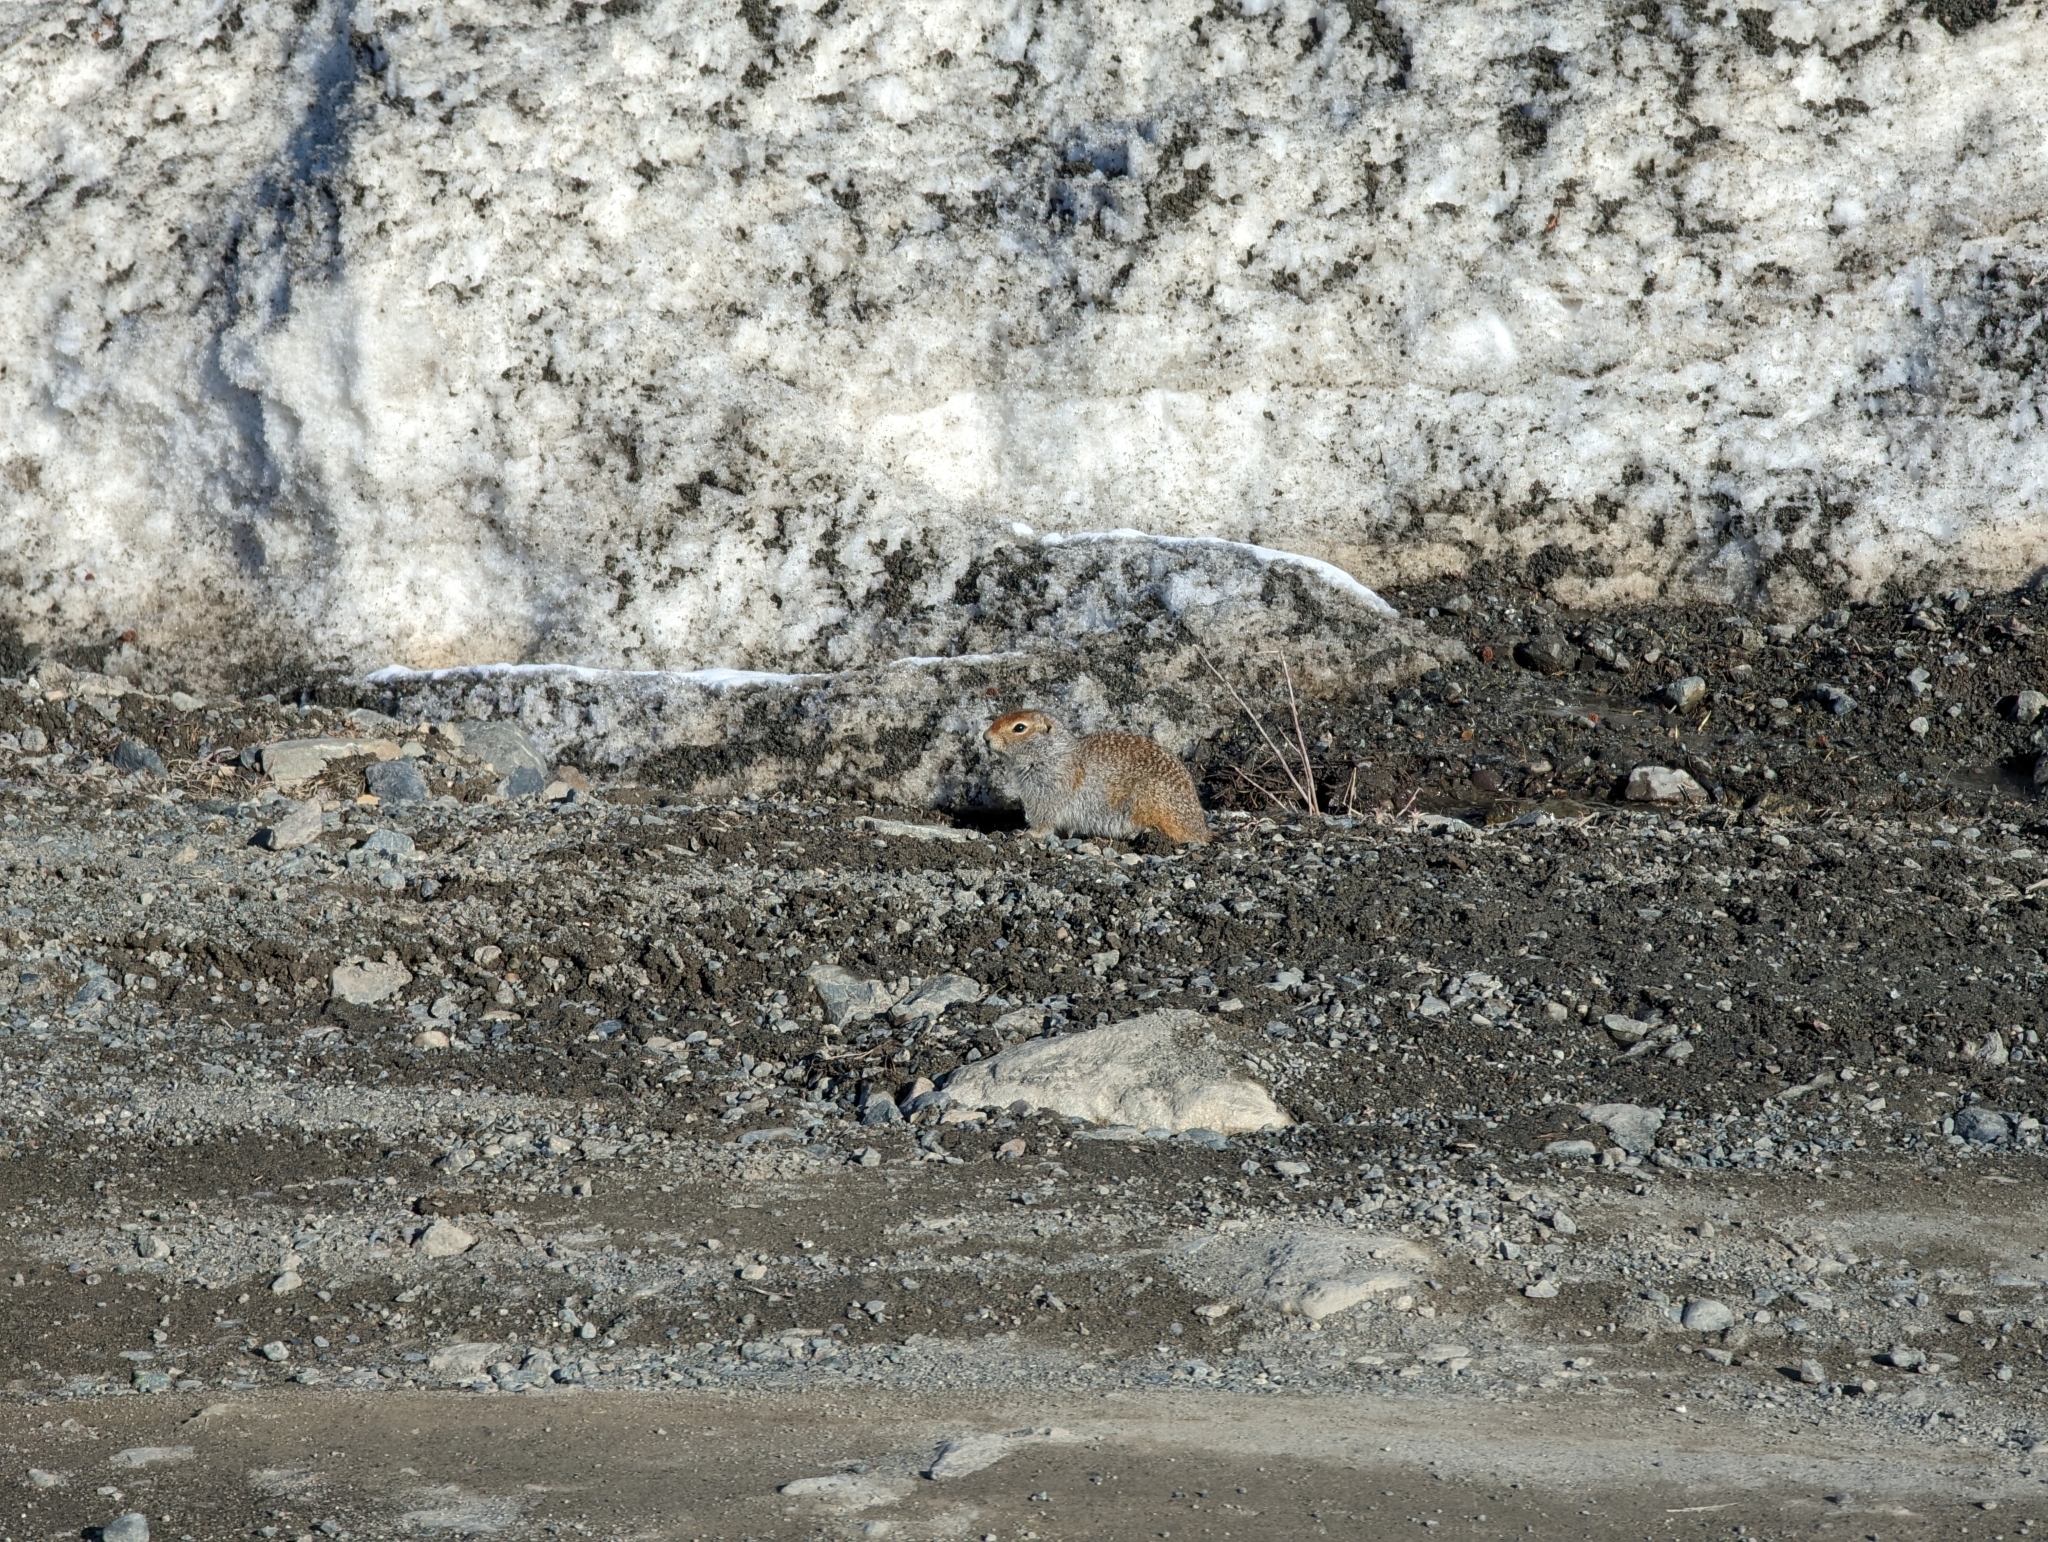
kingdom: Animalia
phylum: Chordata
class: Mammalia
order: Rodentia
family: Sciuridae
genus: Urocitellus
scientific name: Urocitellus parryii
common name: Arctic ground squirrel
